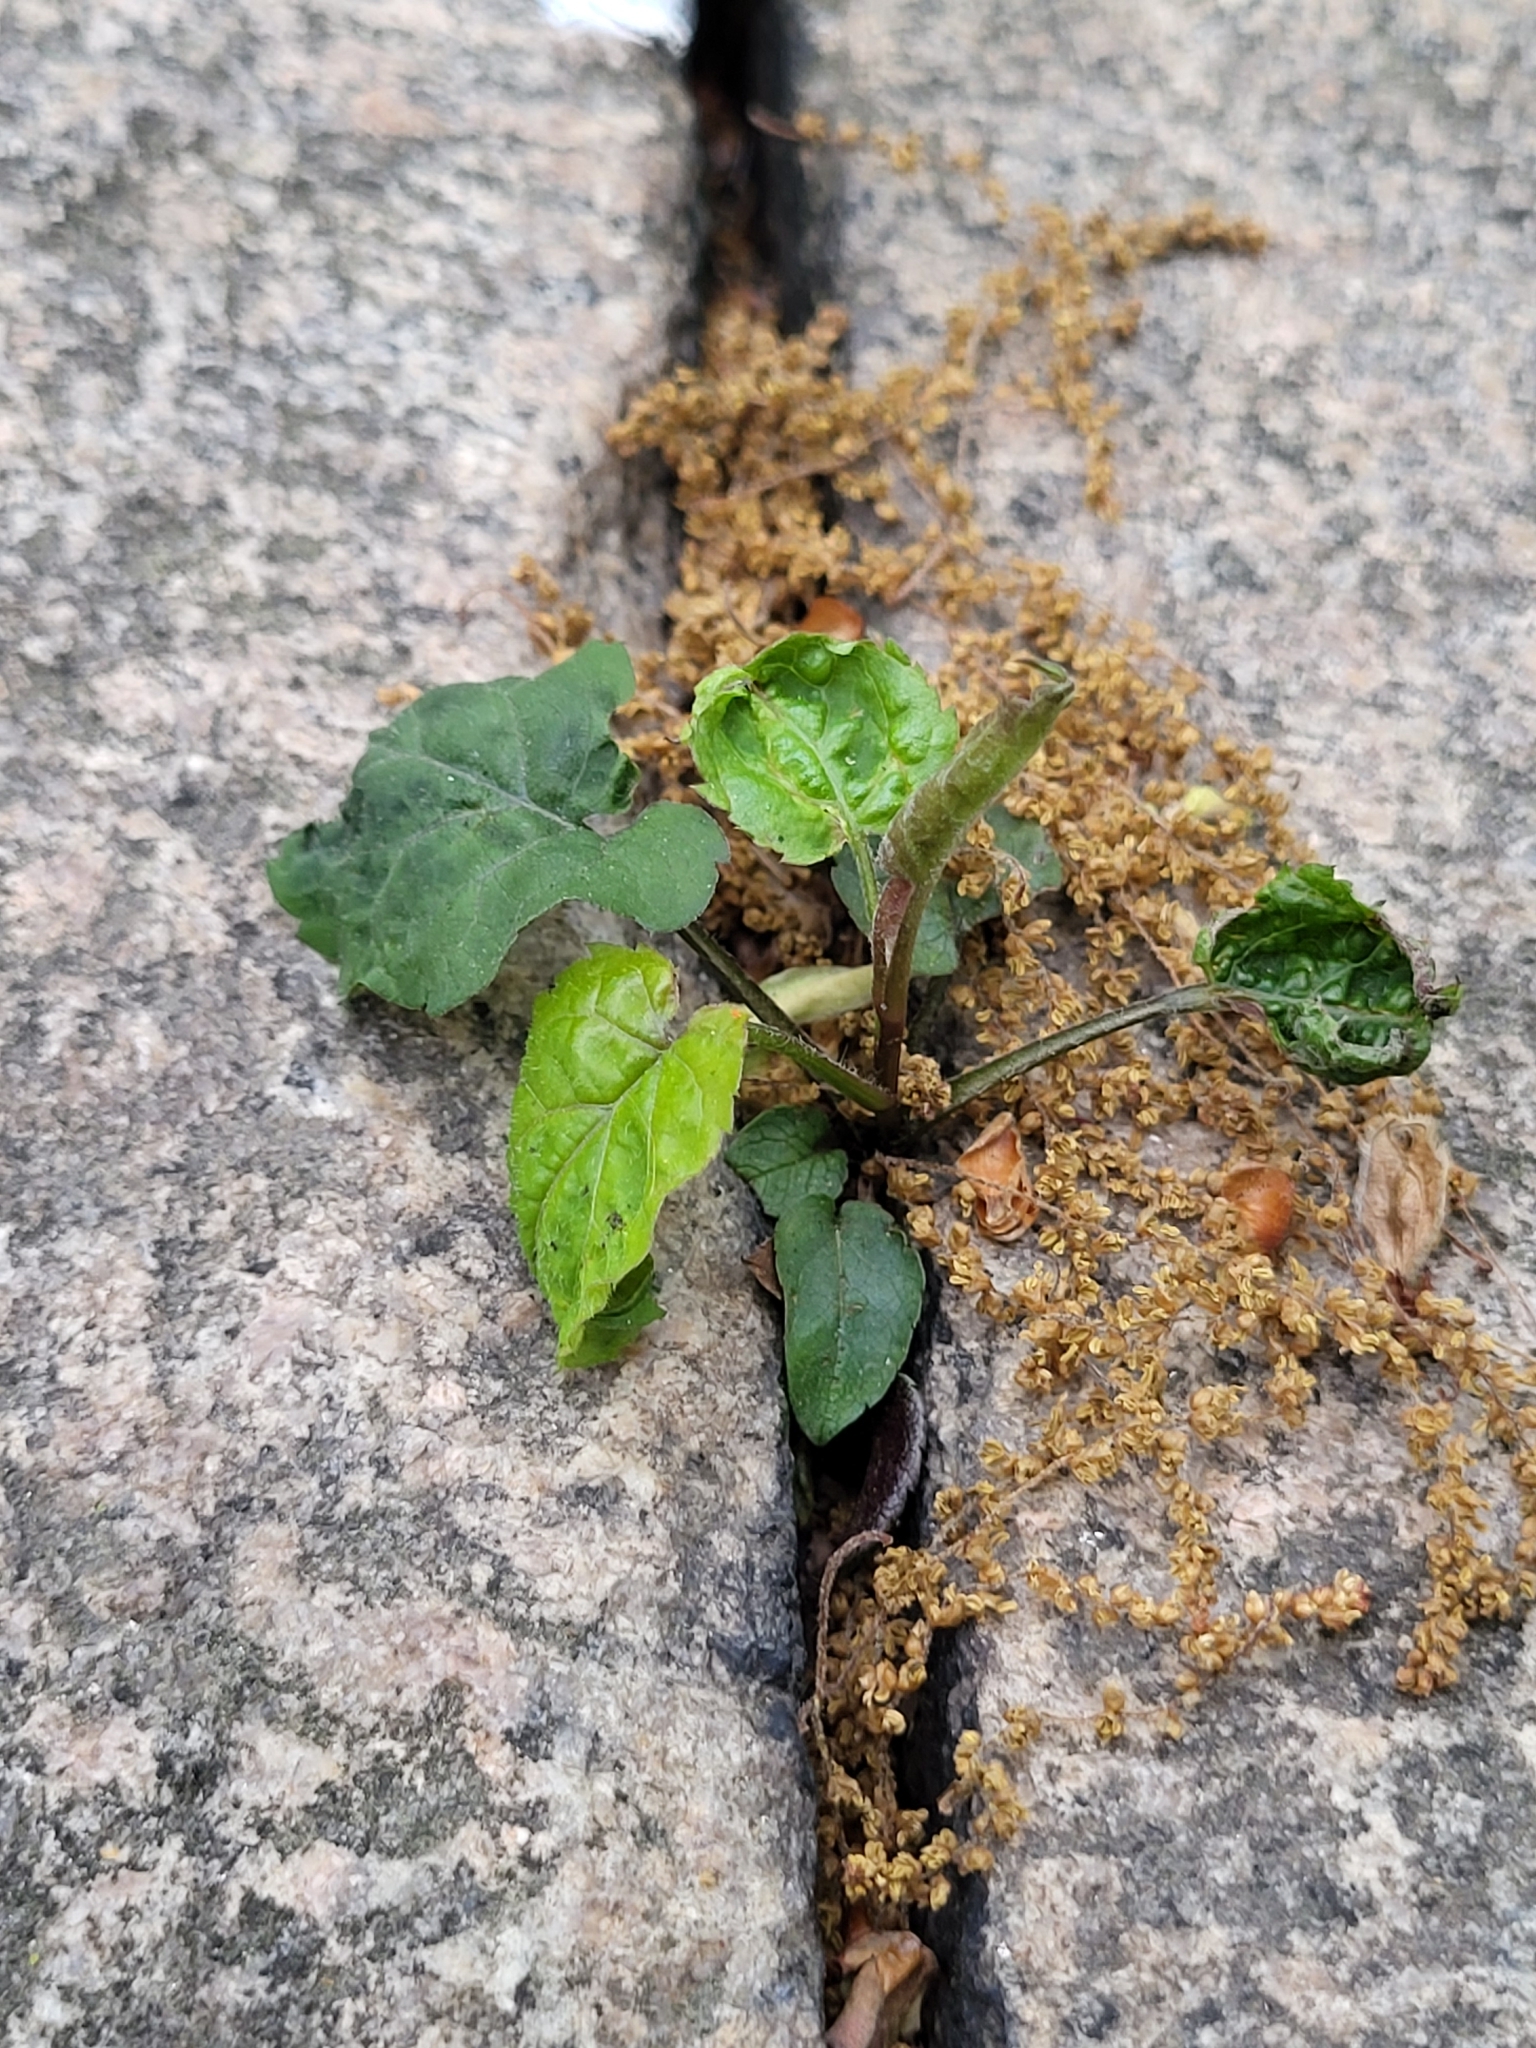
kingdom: Plantae
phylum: Tracheophyta
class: Magnoliopsida
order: Asterales
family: Asteraceae
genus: Eurybia
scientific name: Eurybia divaricata
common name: White wood aster
